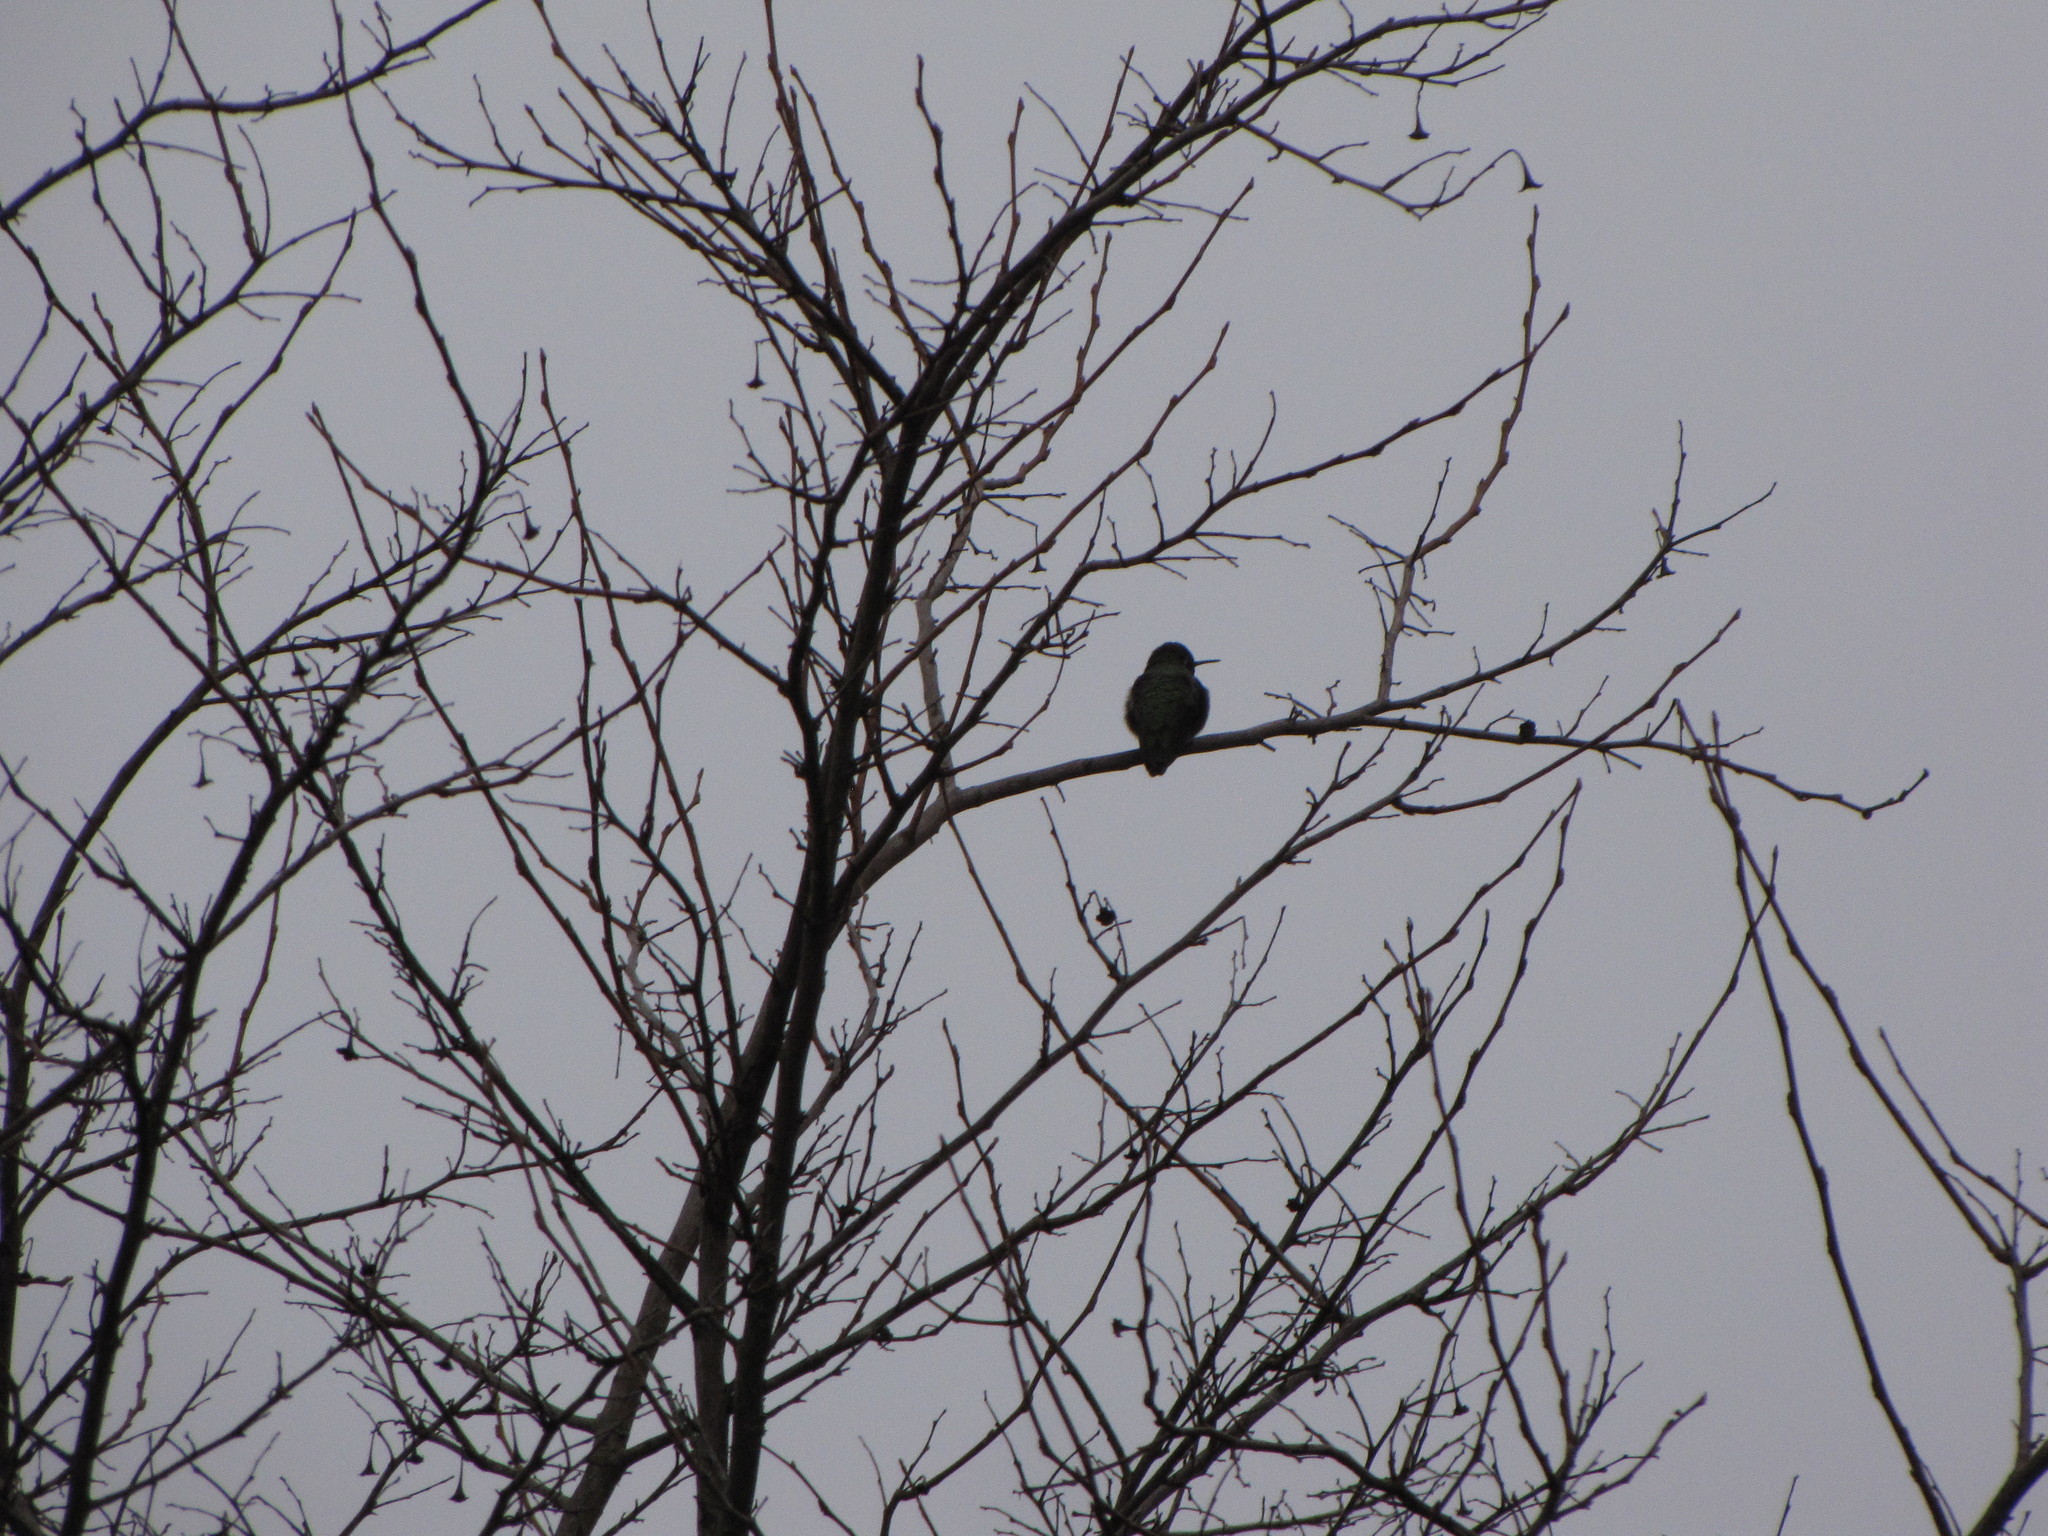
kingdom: Animalia
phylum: Chordata
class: Aves
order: Apodiformes
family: Trochilidae
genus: Calypte
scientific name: Calypte anna
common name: Anna's hummingbird
